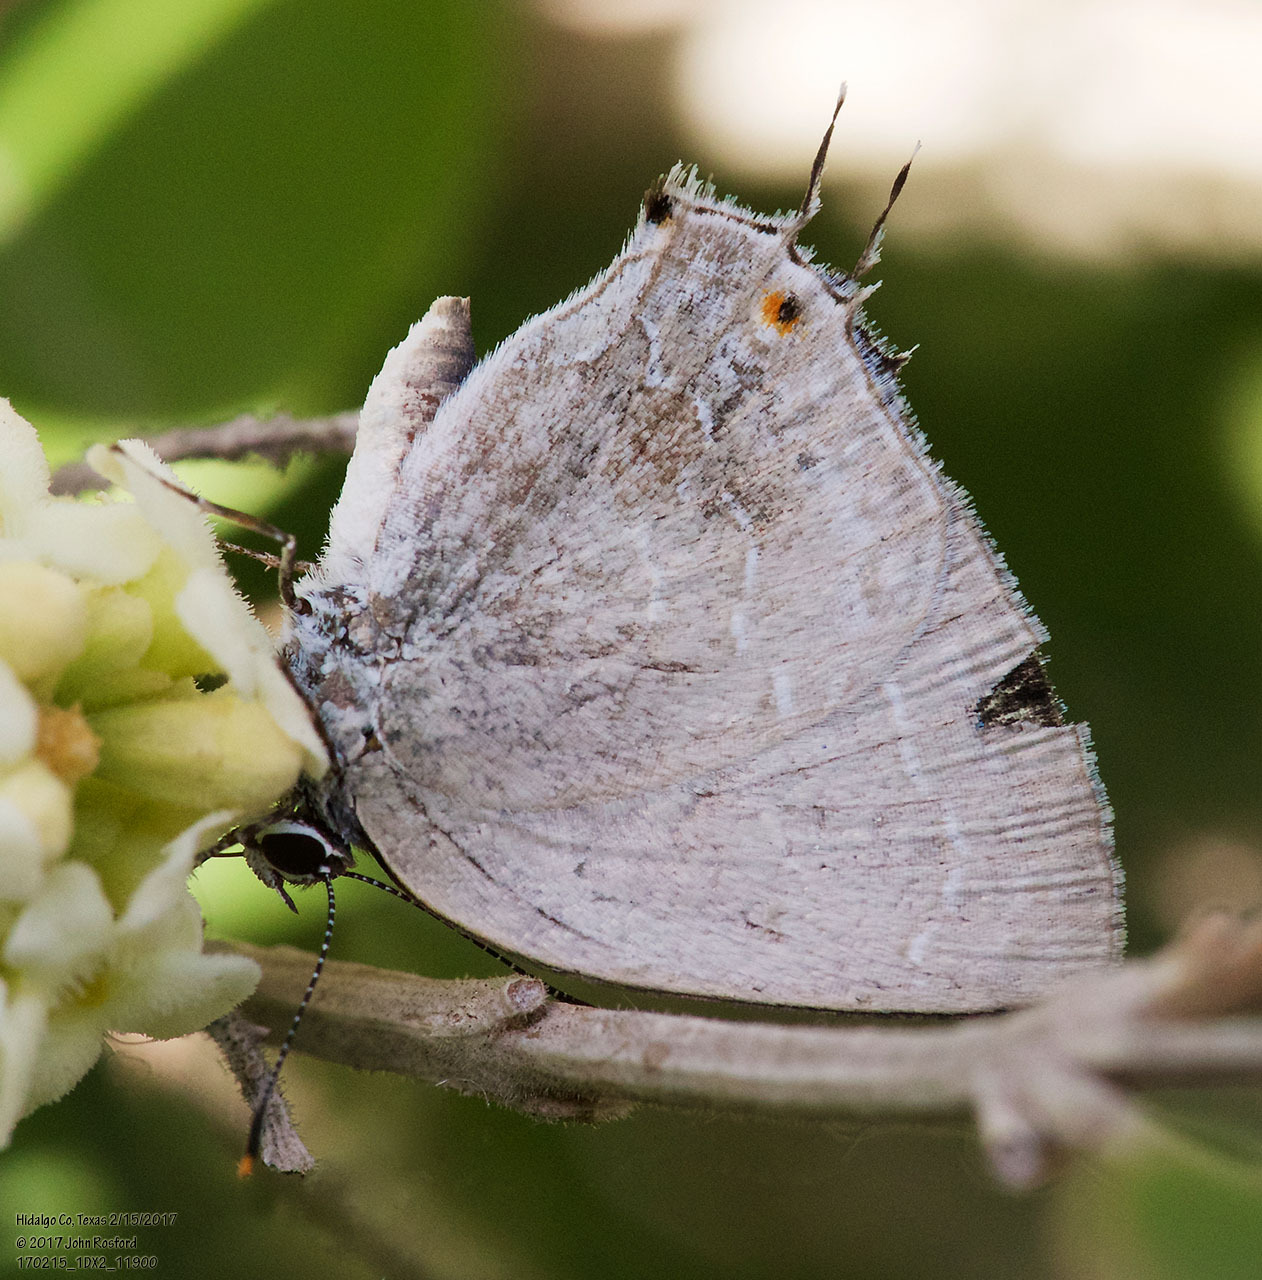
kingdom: Animalia
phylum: Arthropoda
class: Insecta
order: Lepidoptera
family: Lycaenidae
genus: Strephonota
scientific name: Strephonota tephraeus
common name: Pearly-gray hairstreak
